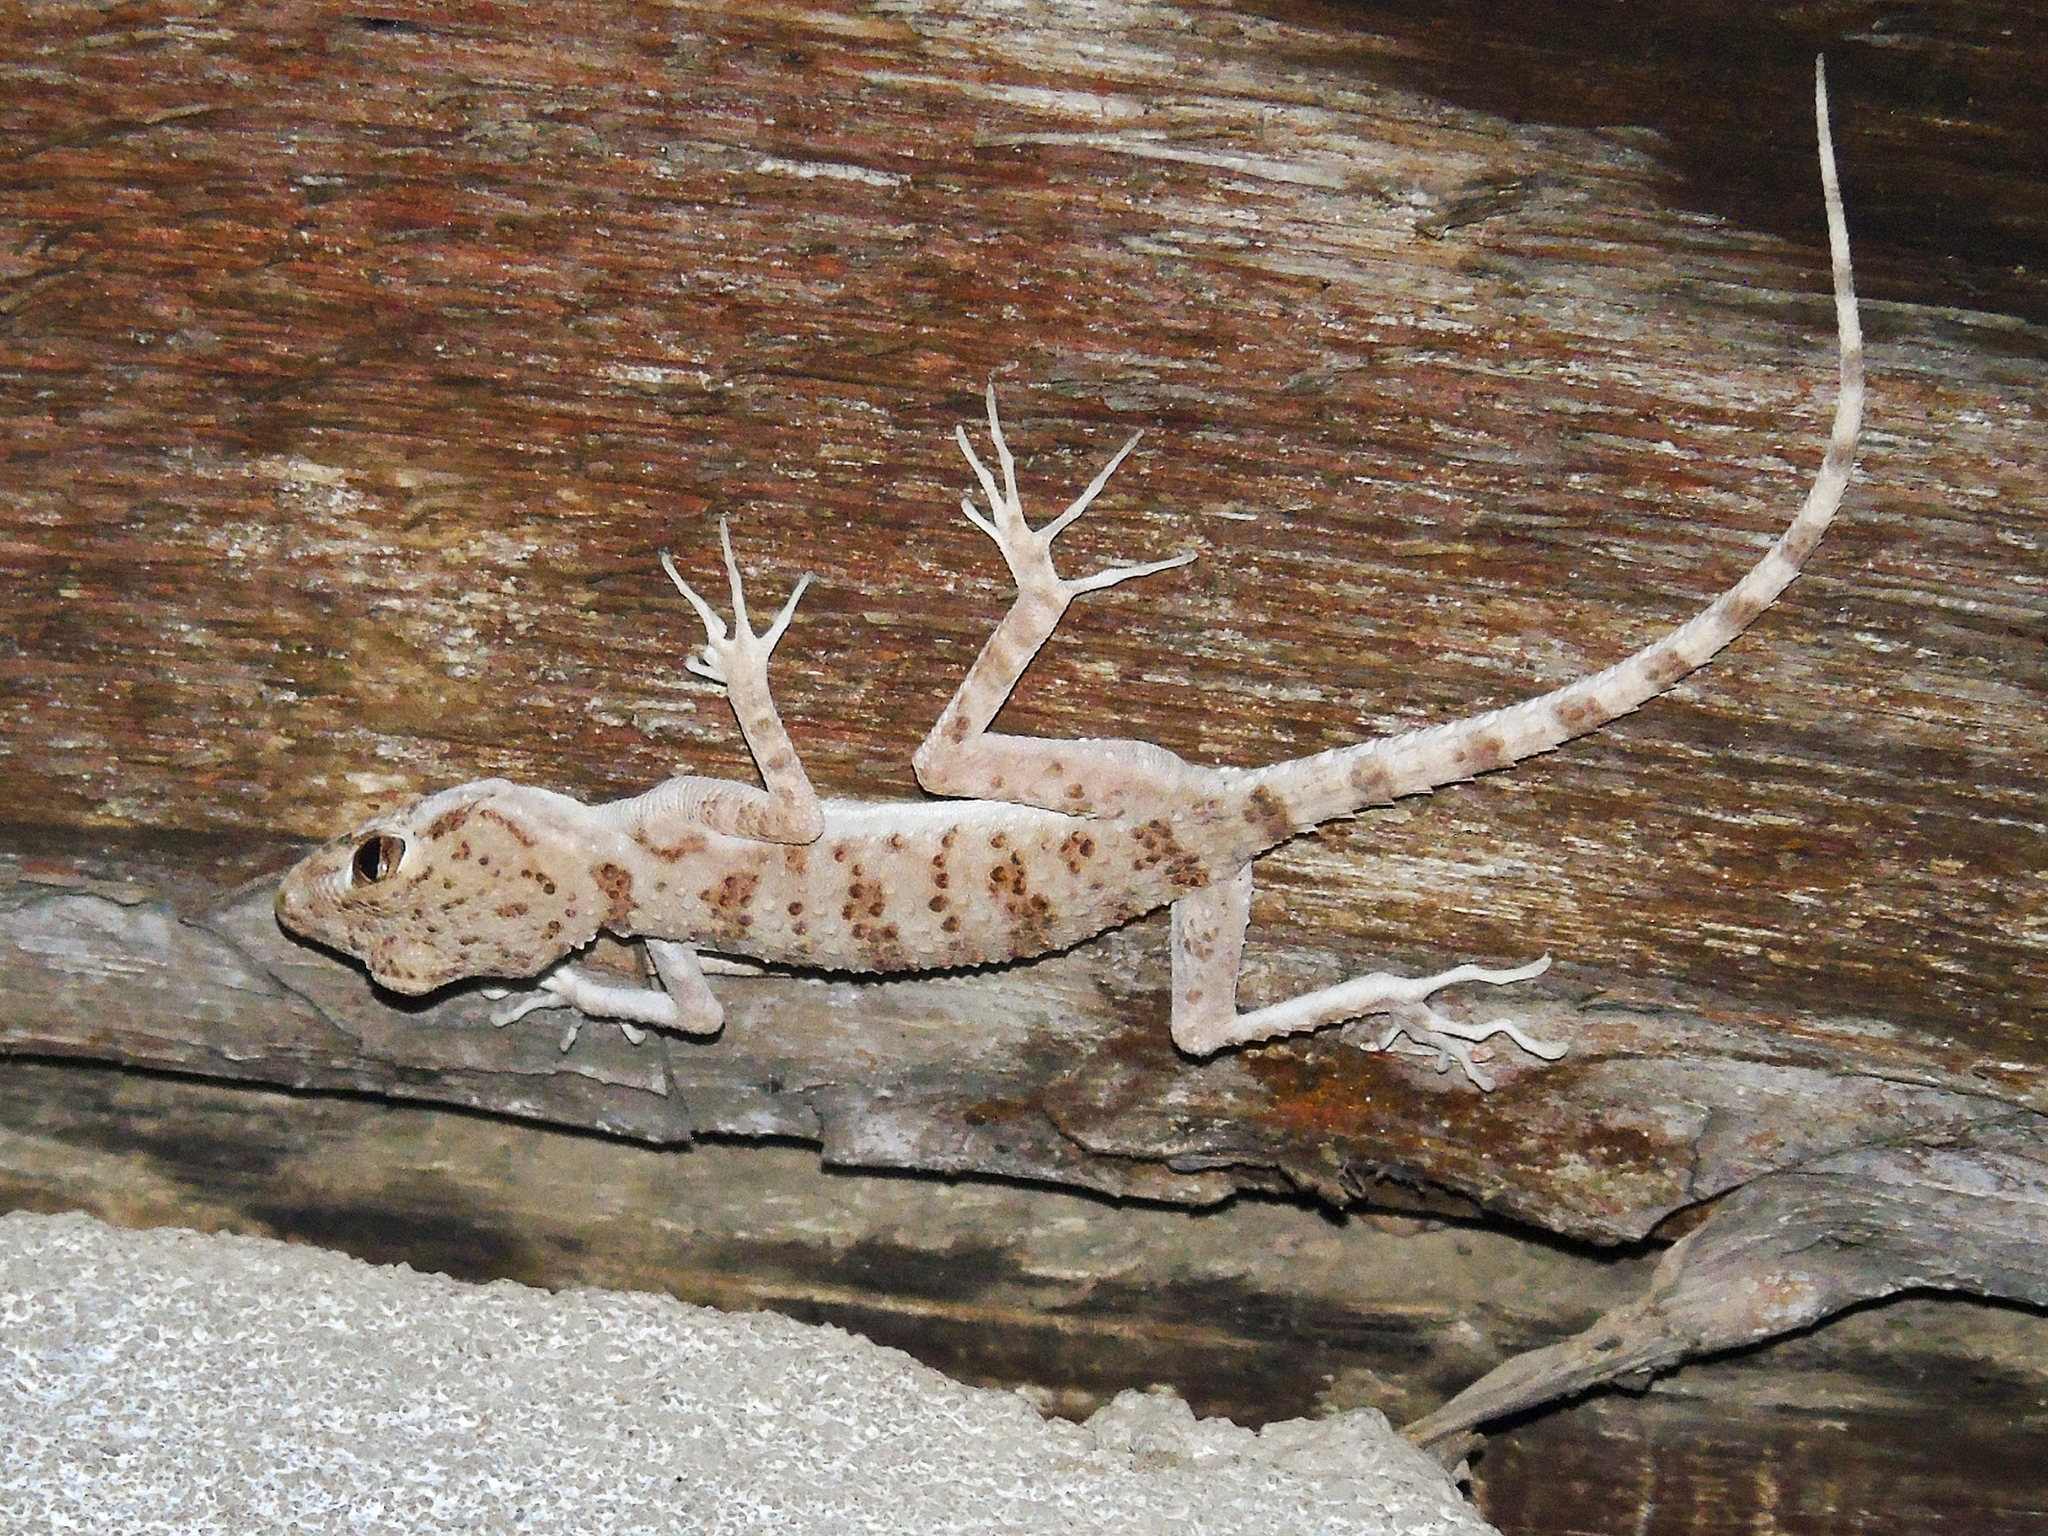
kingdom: Animalia
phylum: Chordata
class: Squamata
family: Gekkonidae
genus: Tenuidactylus
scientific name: Tenuidactylus bogdanovi
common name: Bogdanov’s thin-toed gecko
